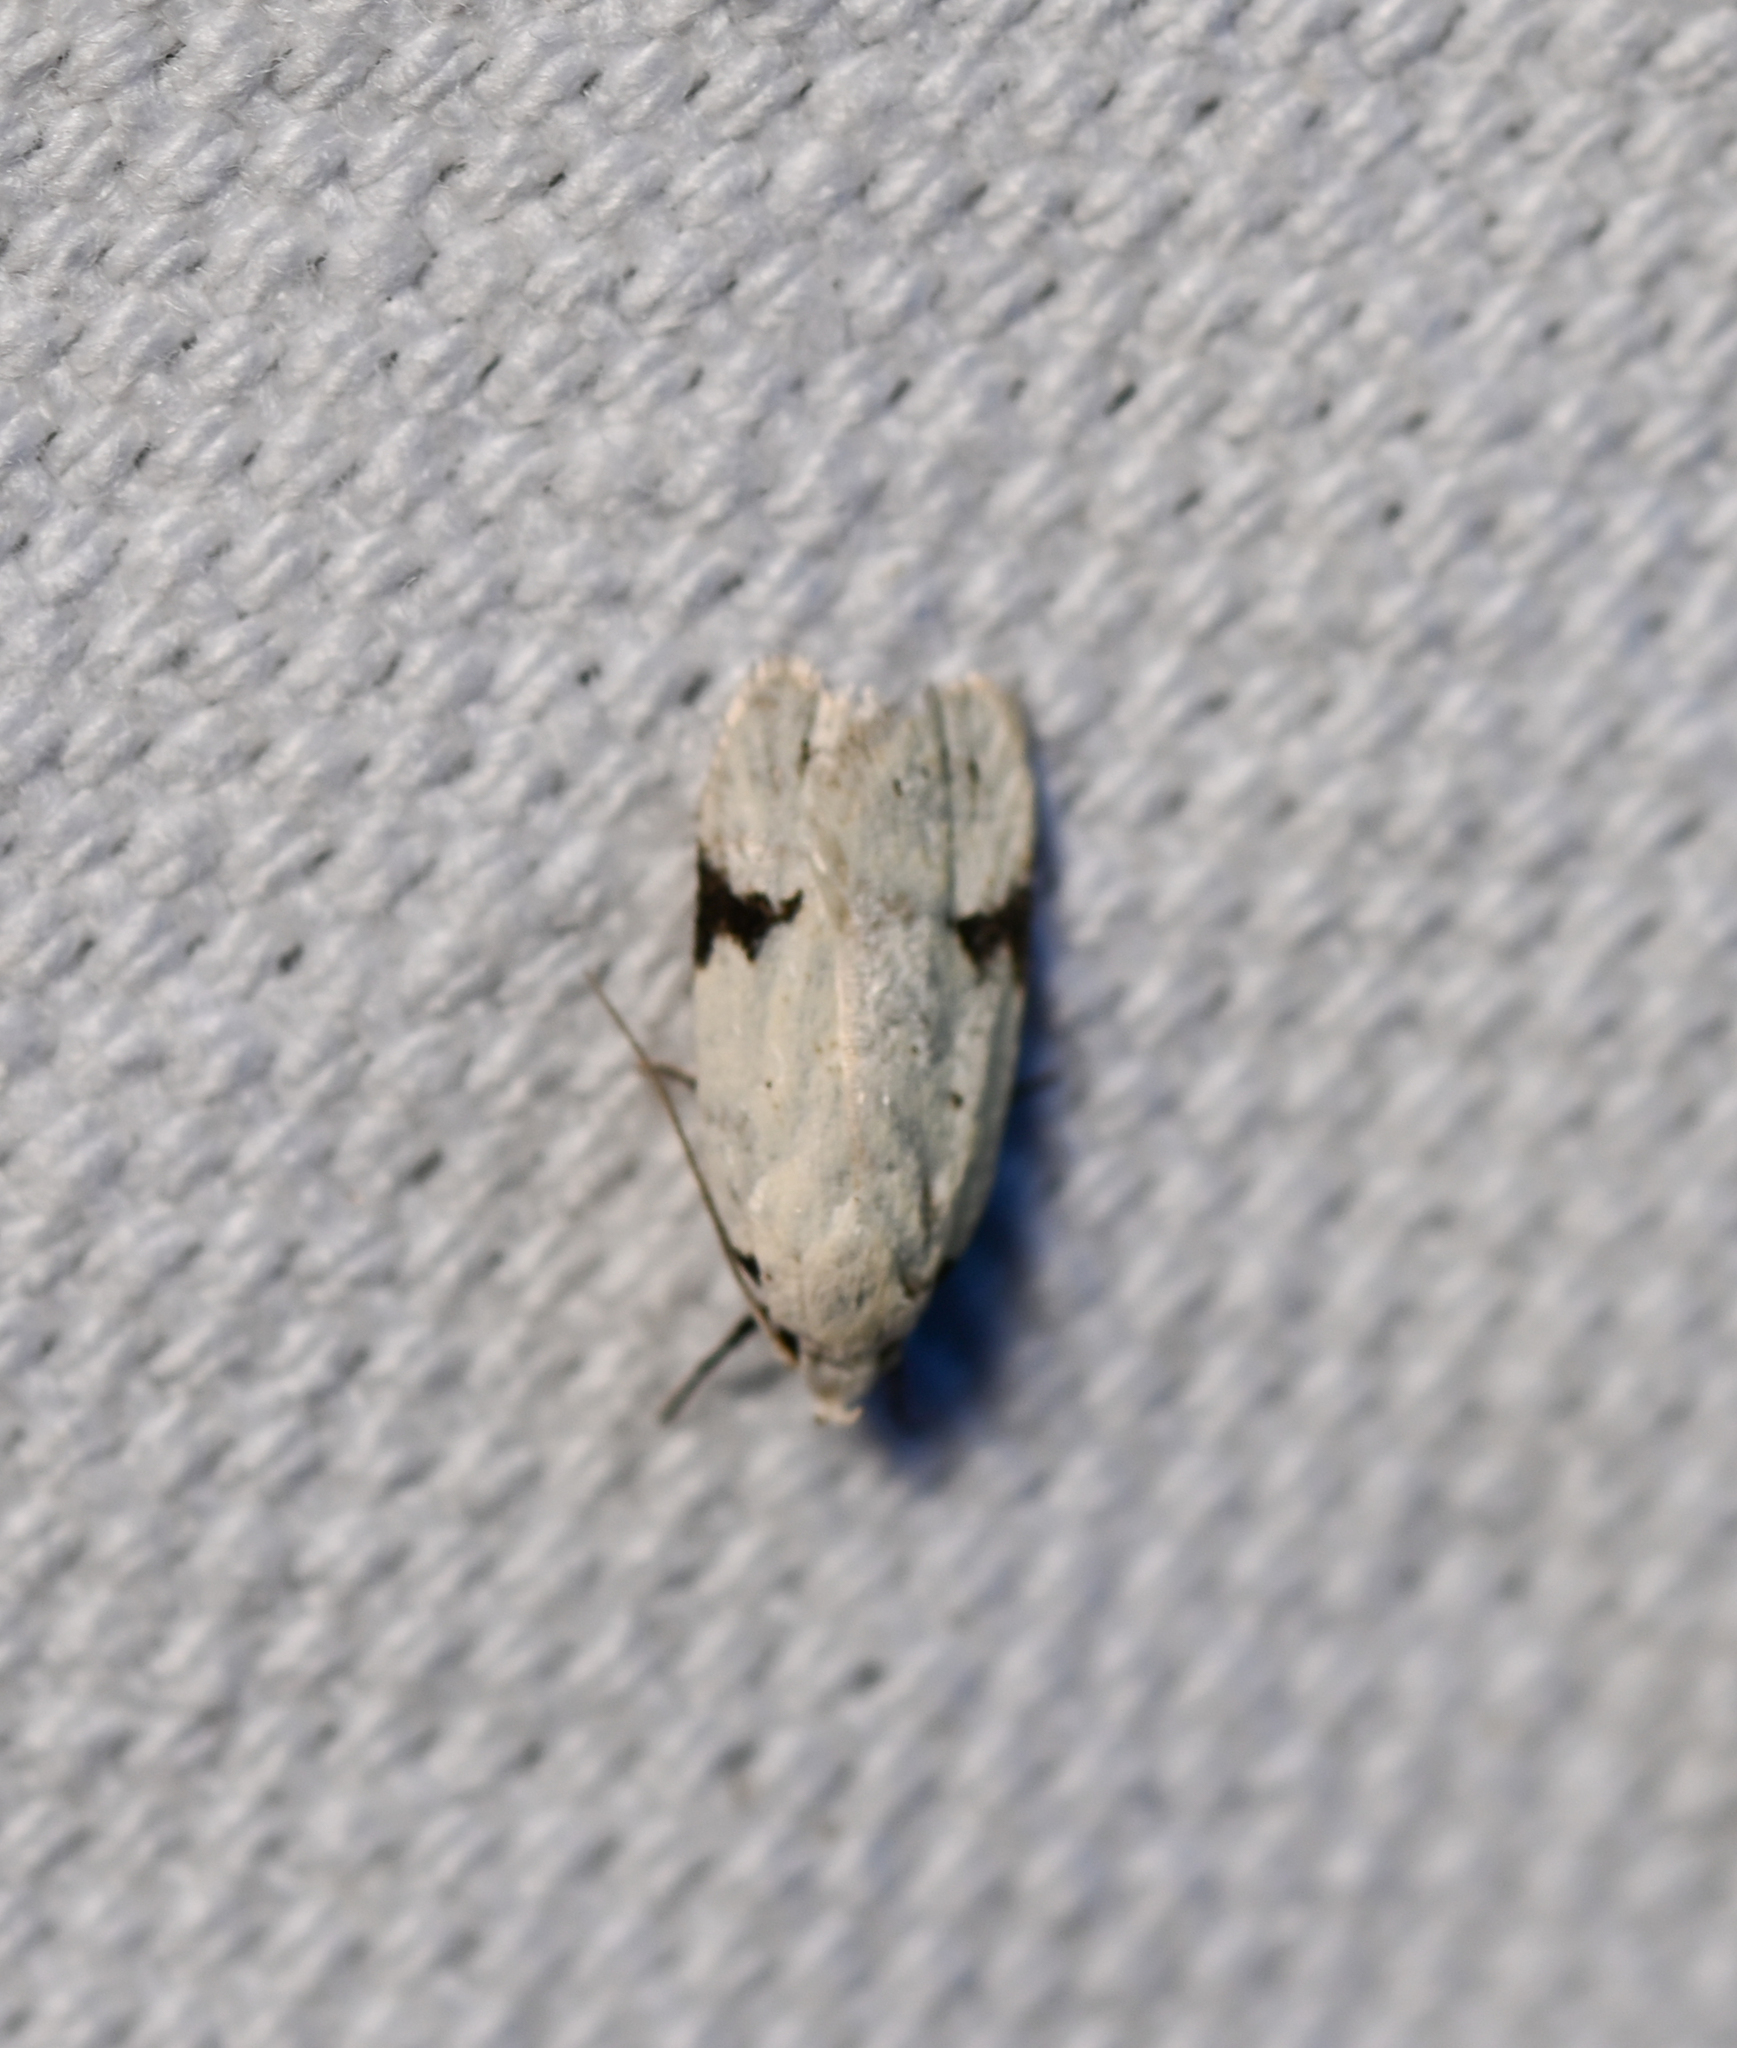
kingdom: Animalia
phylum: Arthropoda
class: Insecta
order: Lepidoptera
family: Oecophoridae
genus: Inga
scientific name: Inga sparsiciliella
